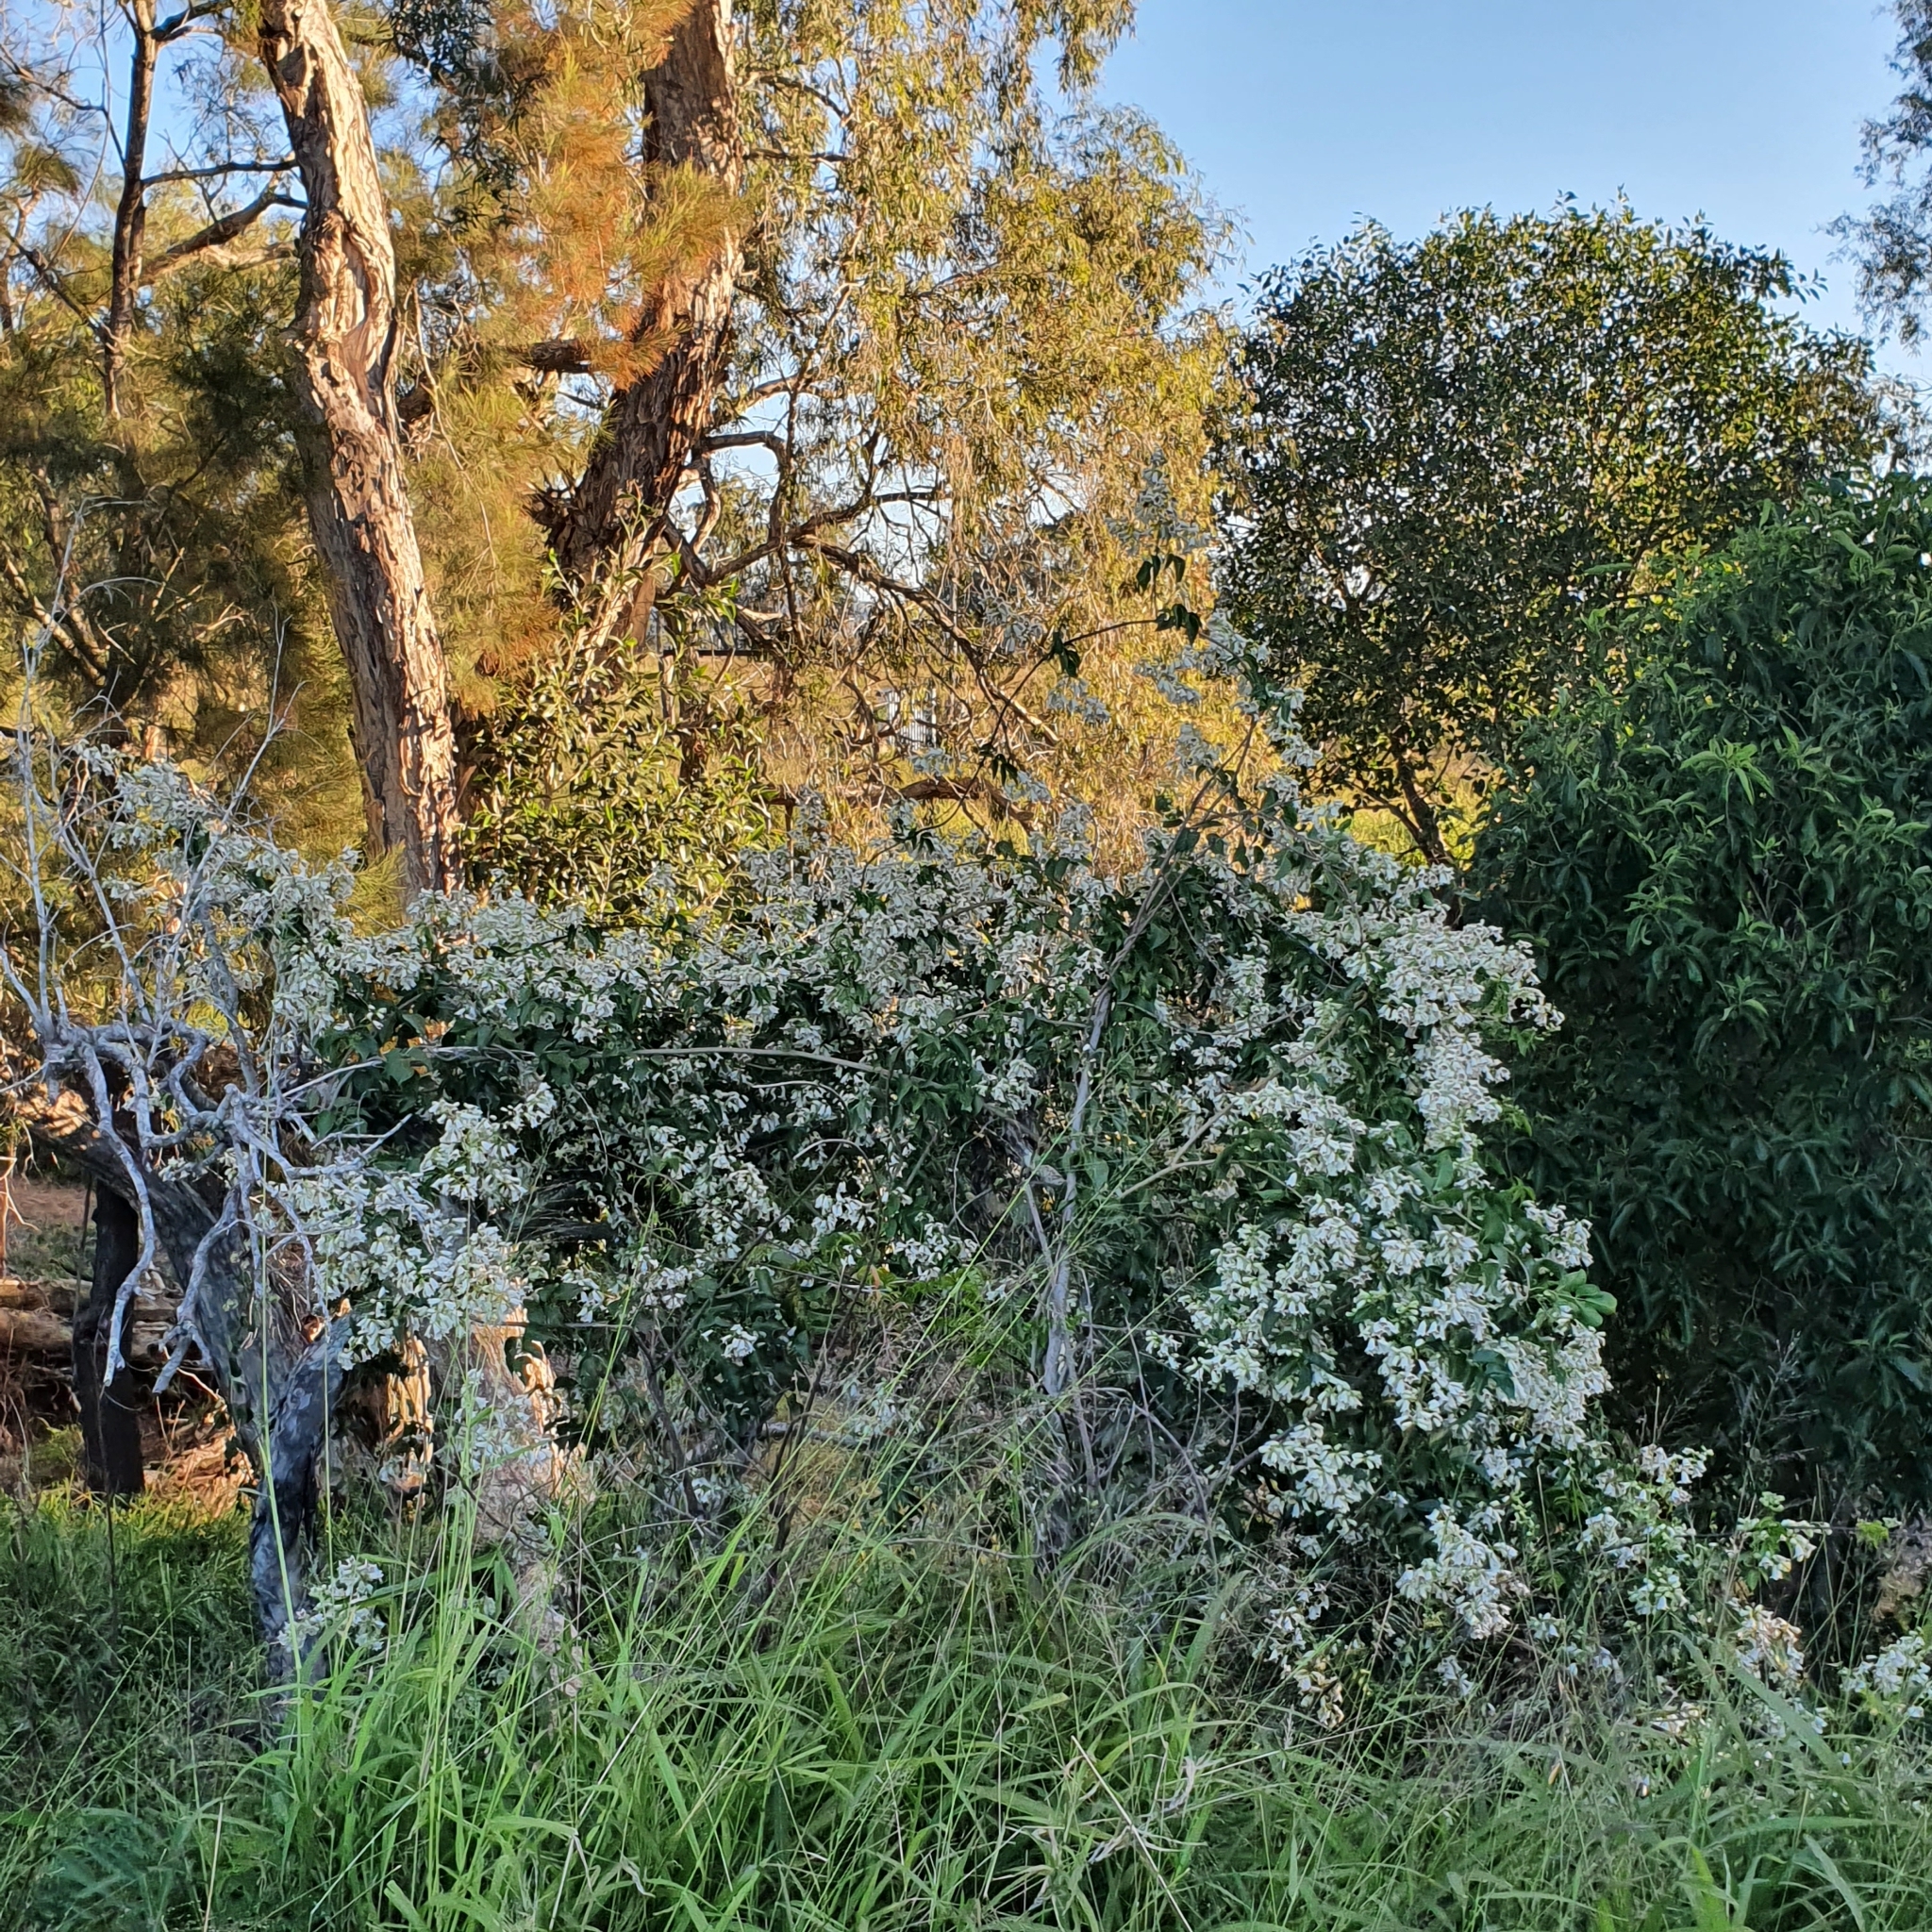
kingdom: Plantae
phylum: Tracheophyta
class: Magnoliopsida
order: Lamiales
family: Bignoniaceae
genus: Pandorea
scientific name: Pandorea pandorana
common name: Wonga-wonga-vine
